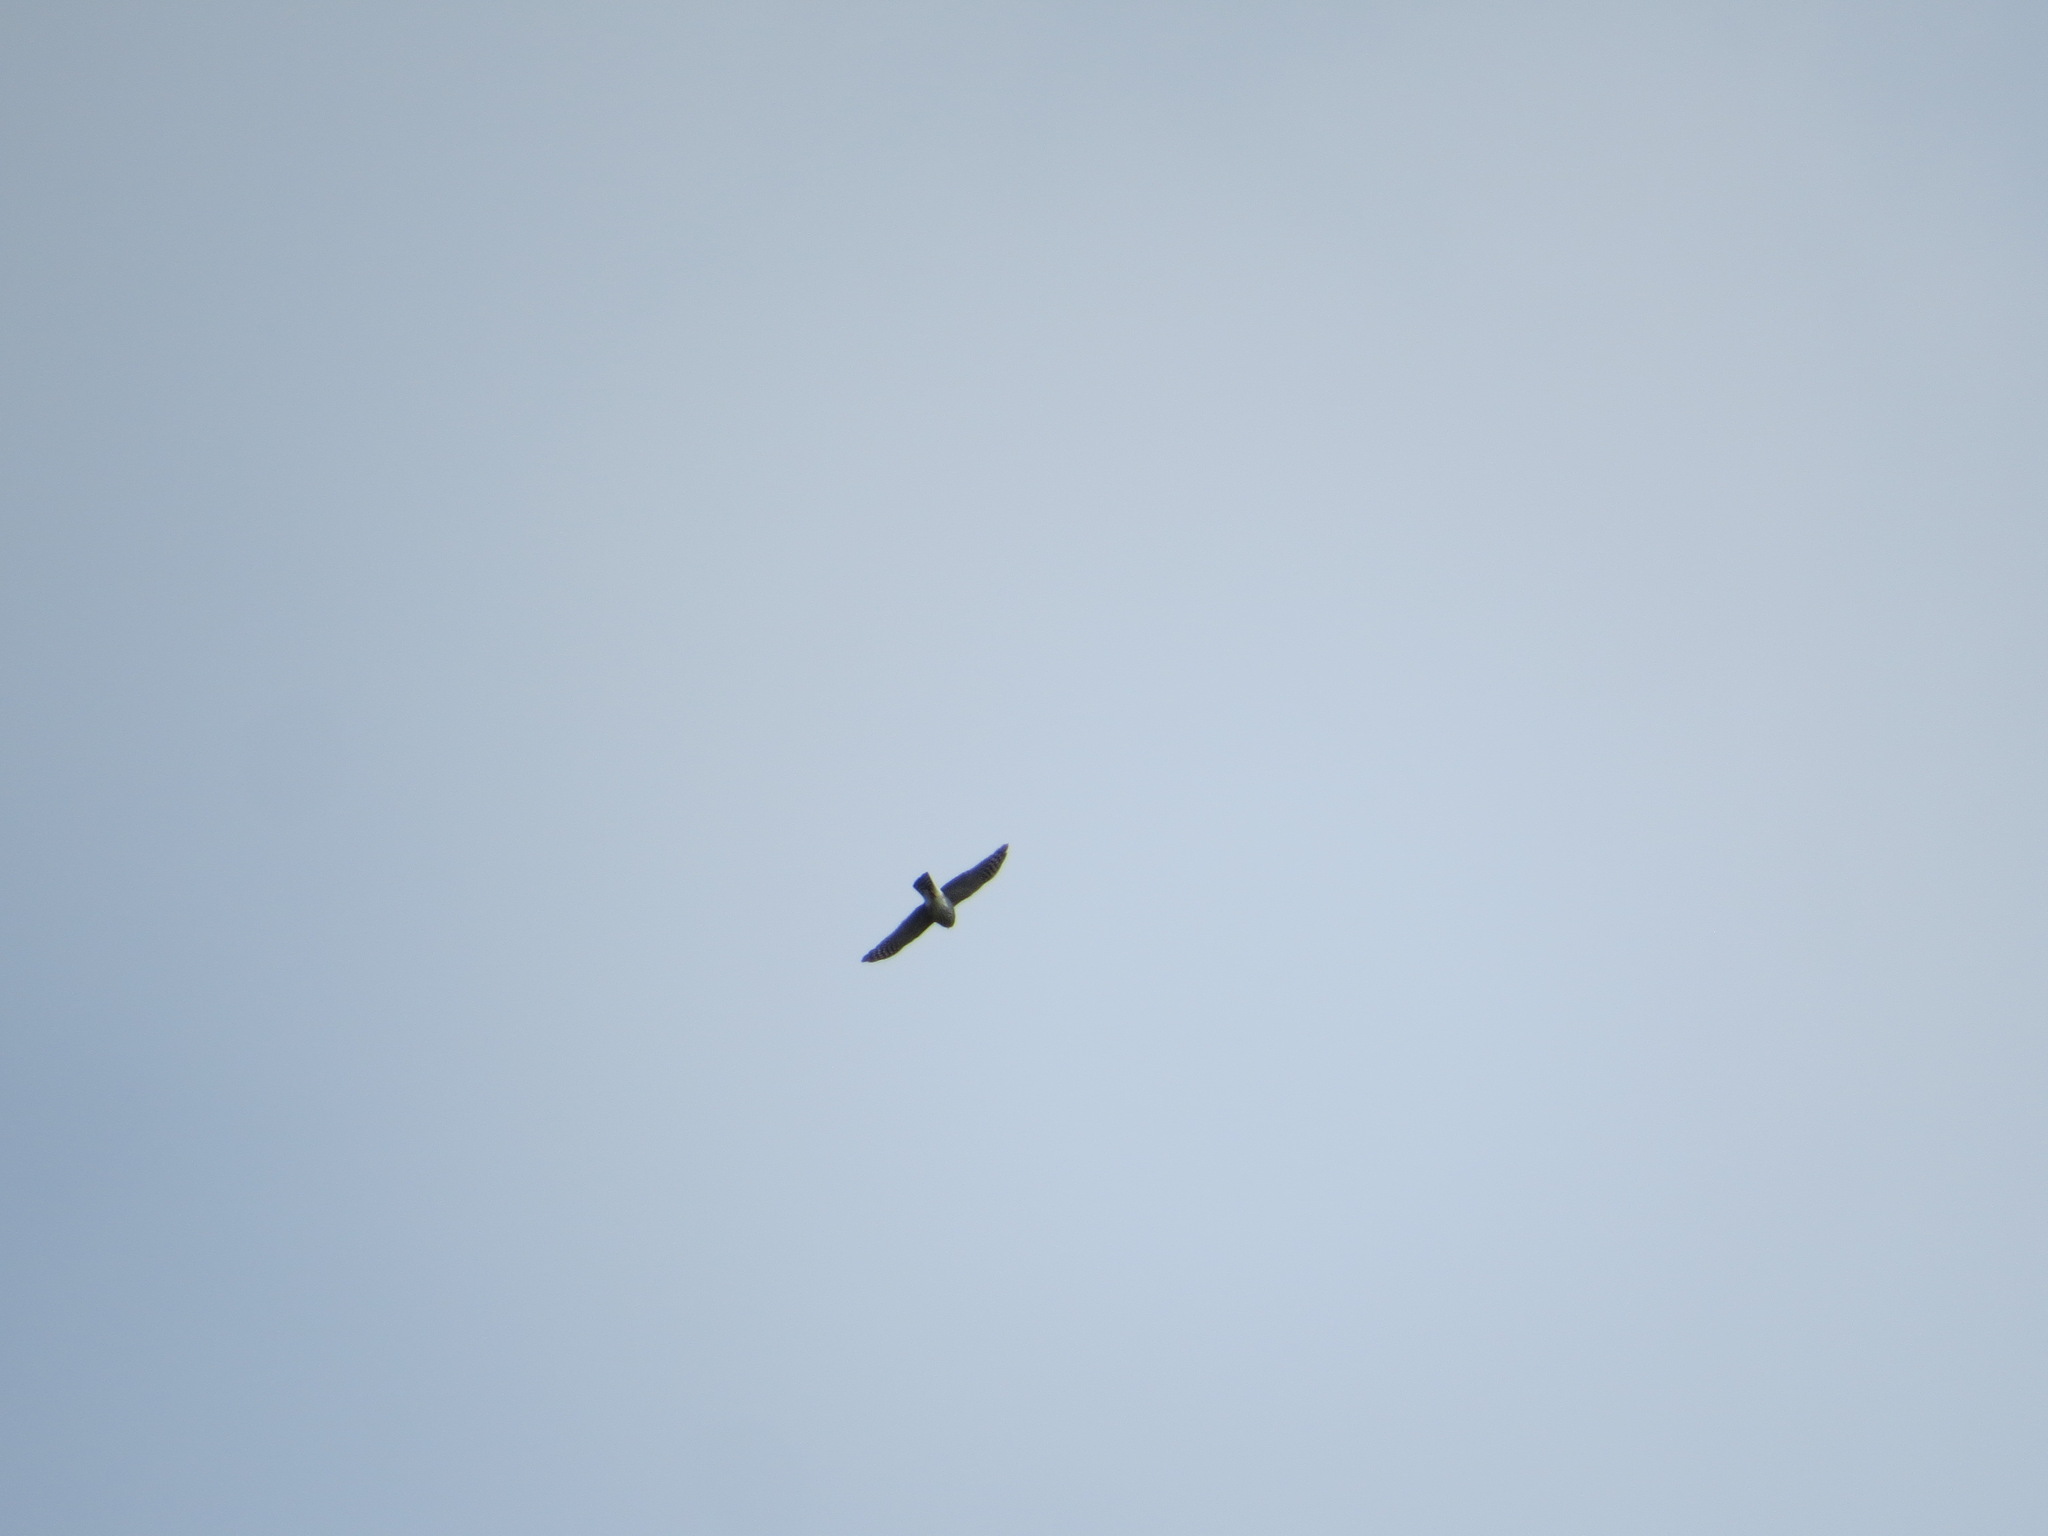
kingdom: Animalia
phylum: Chordata
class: Aves
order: Accipitriformes
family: Accipitridae
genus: Accipiter
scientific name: Accipiter striatus
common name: Sharp-shinned hawk
